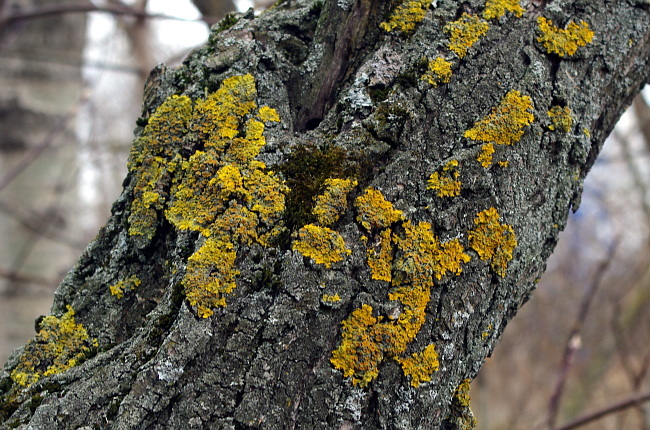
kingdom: Fungi
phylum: Ascomycota
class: Lecanoromycetes
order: Teloschistales
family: Teloschistaceae
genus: Xanthoria
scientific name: Xanthoria parietina
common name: Common orange lichen
